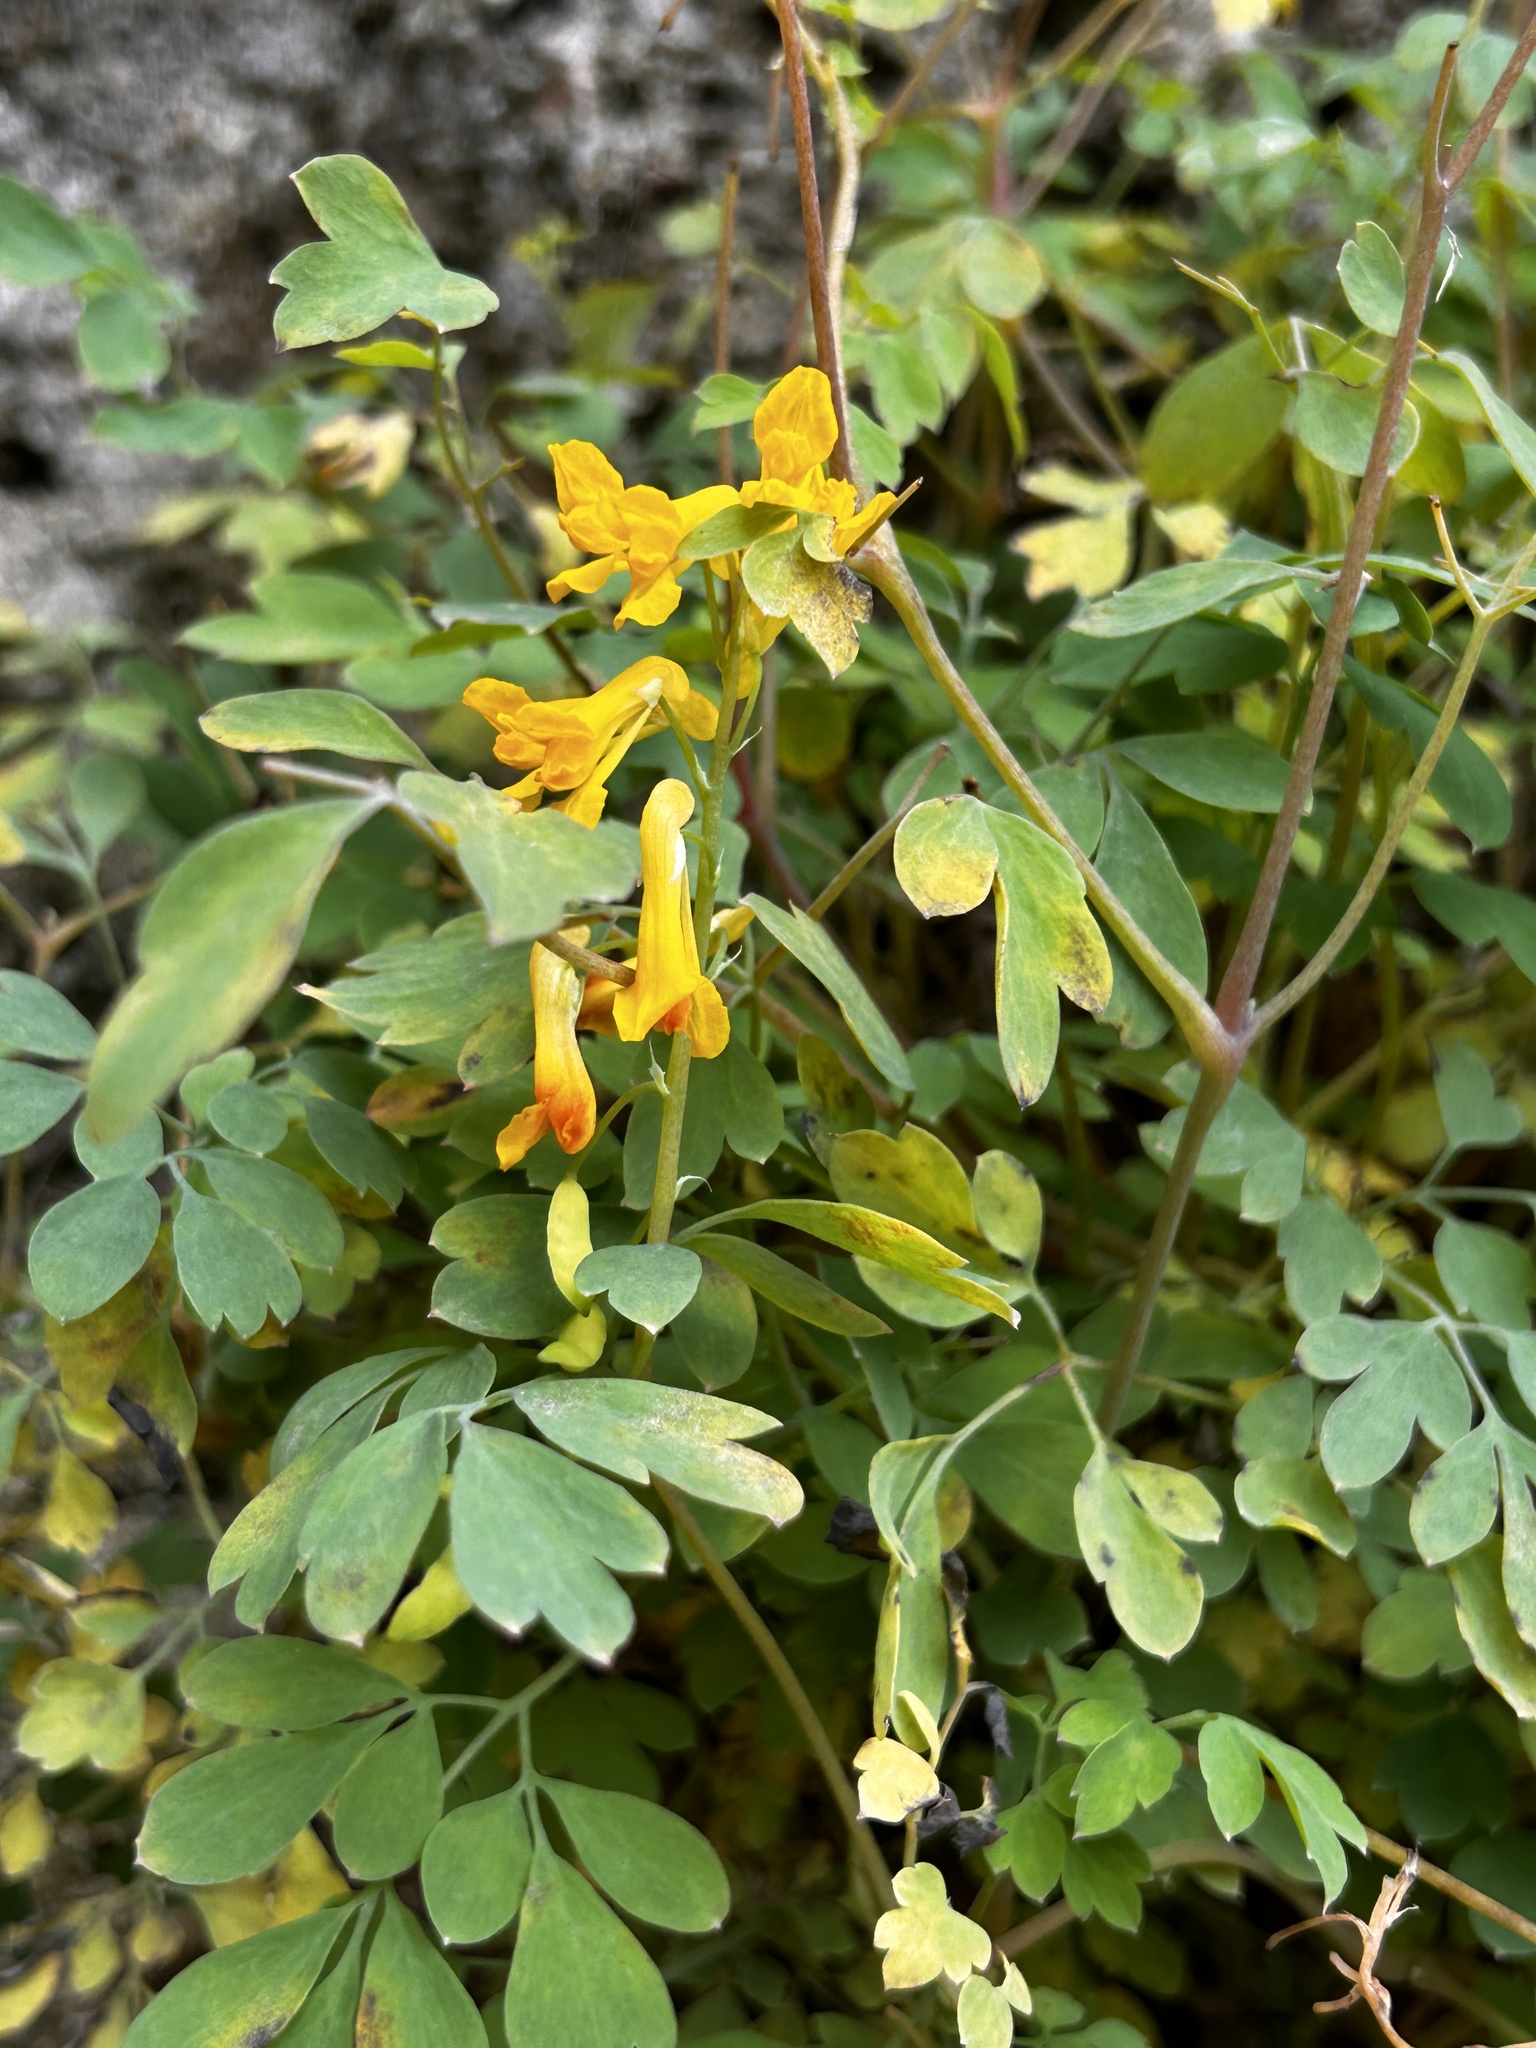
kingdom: Plantae
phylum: Tracheophyta
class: Magnoliopsida
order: Ranunculales
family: Papaveraceae
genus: Pseudofumaria
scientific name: Pseudofumaria lutea
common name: Yellow corydalis
